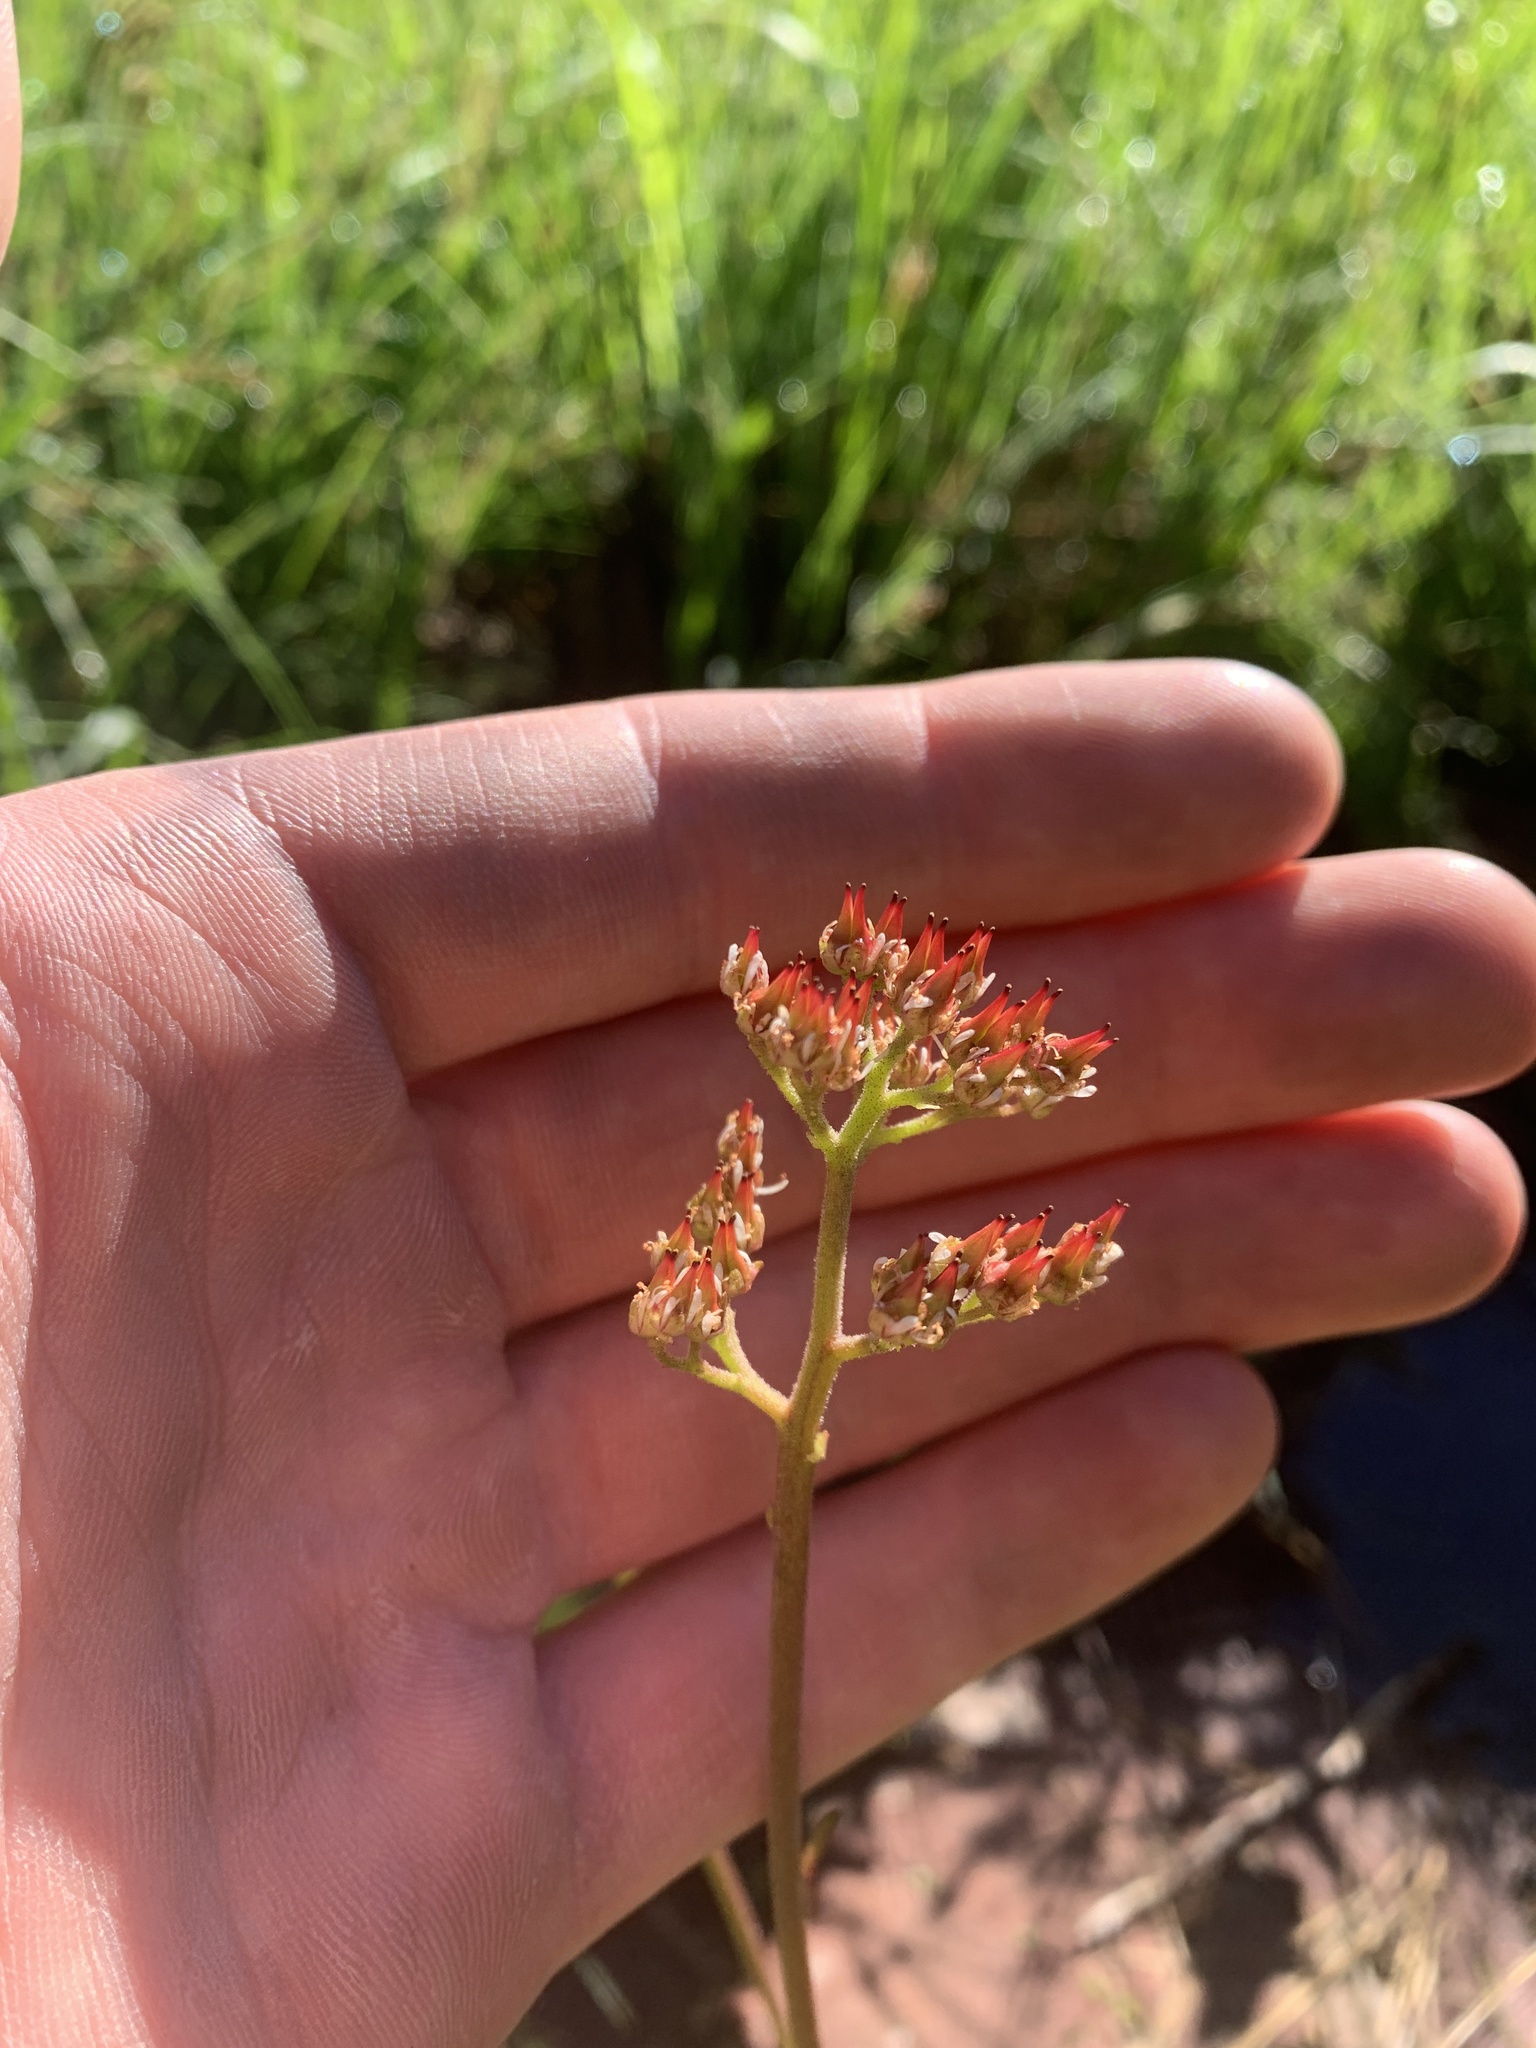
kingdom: Plantae
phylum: Tracheophyta
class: Magnoliopsida
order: Saxifragales
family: Saxifragaceae
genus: Leptarrhena
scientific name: Leptarrhena pyrolifolia
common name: Leatherleaf-saxifrage
